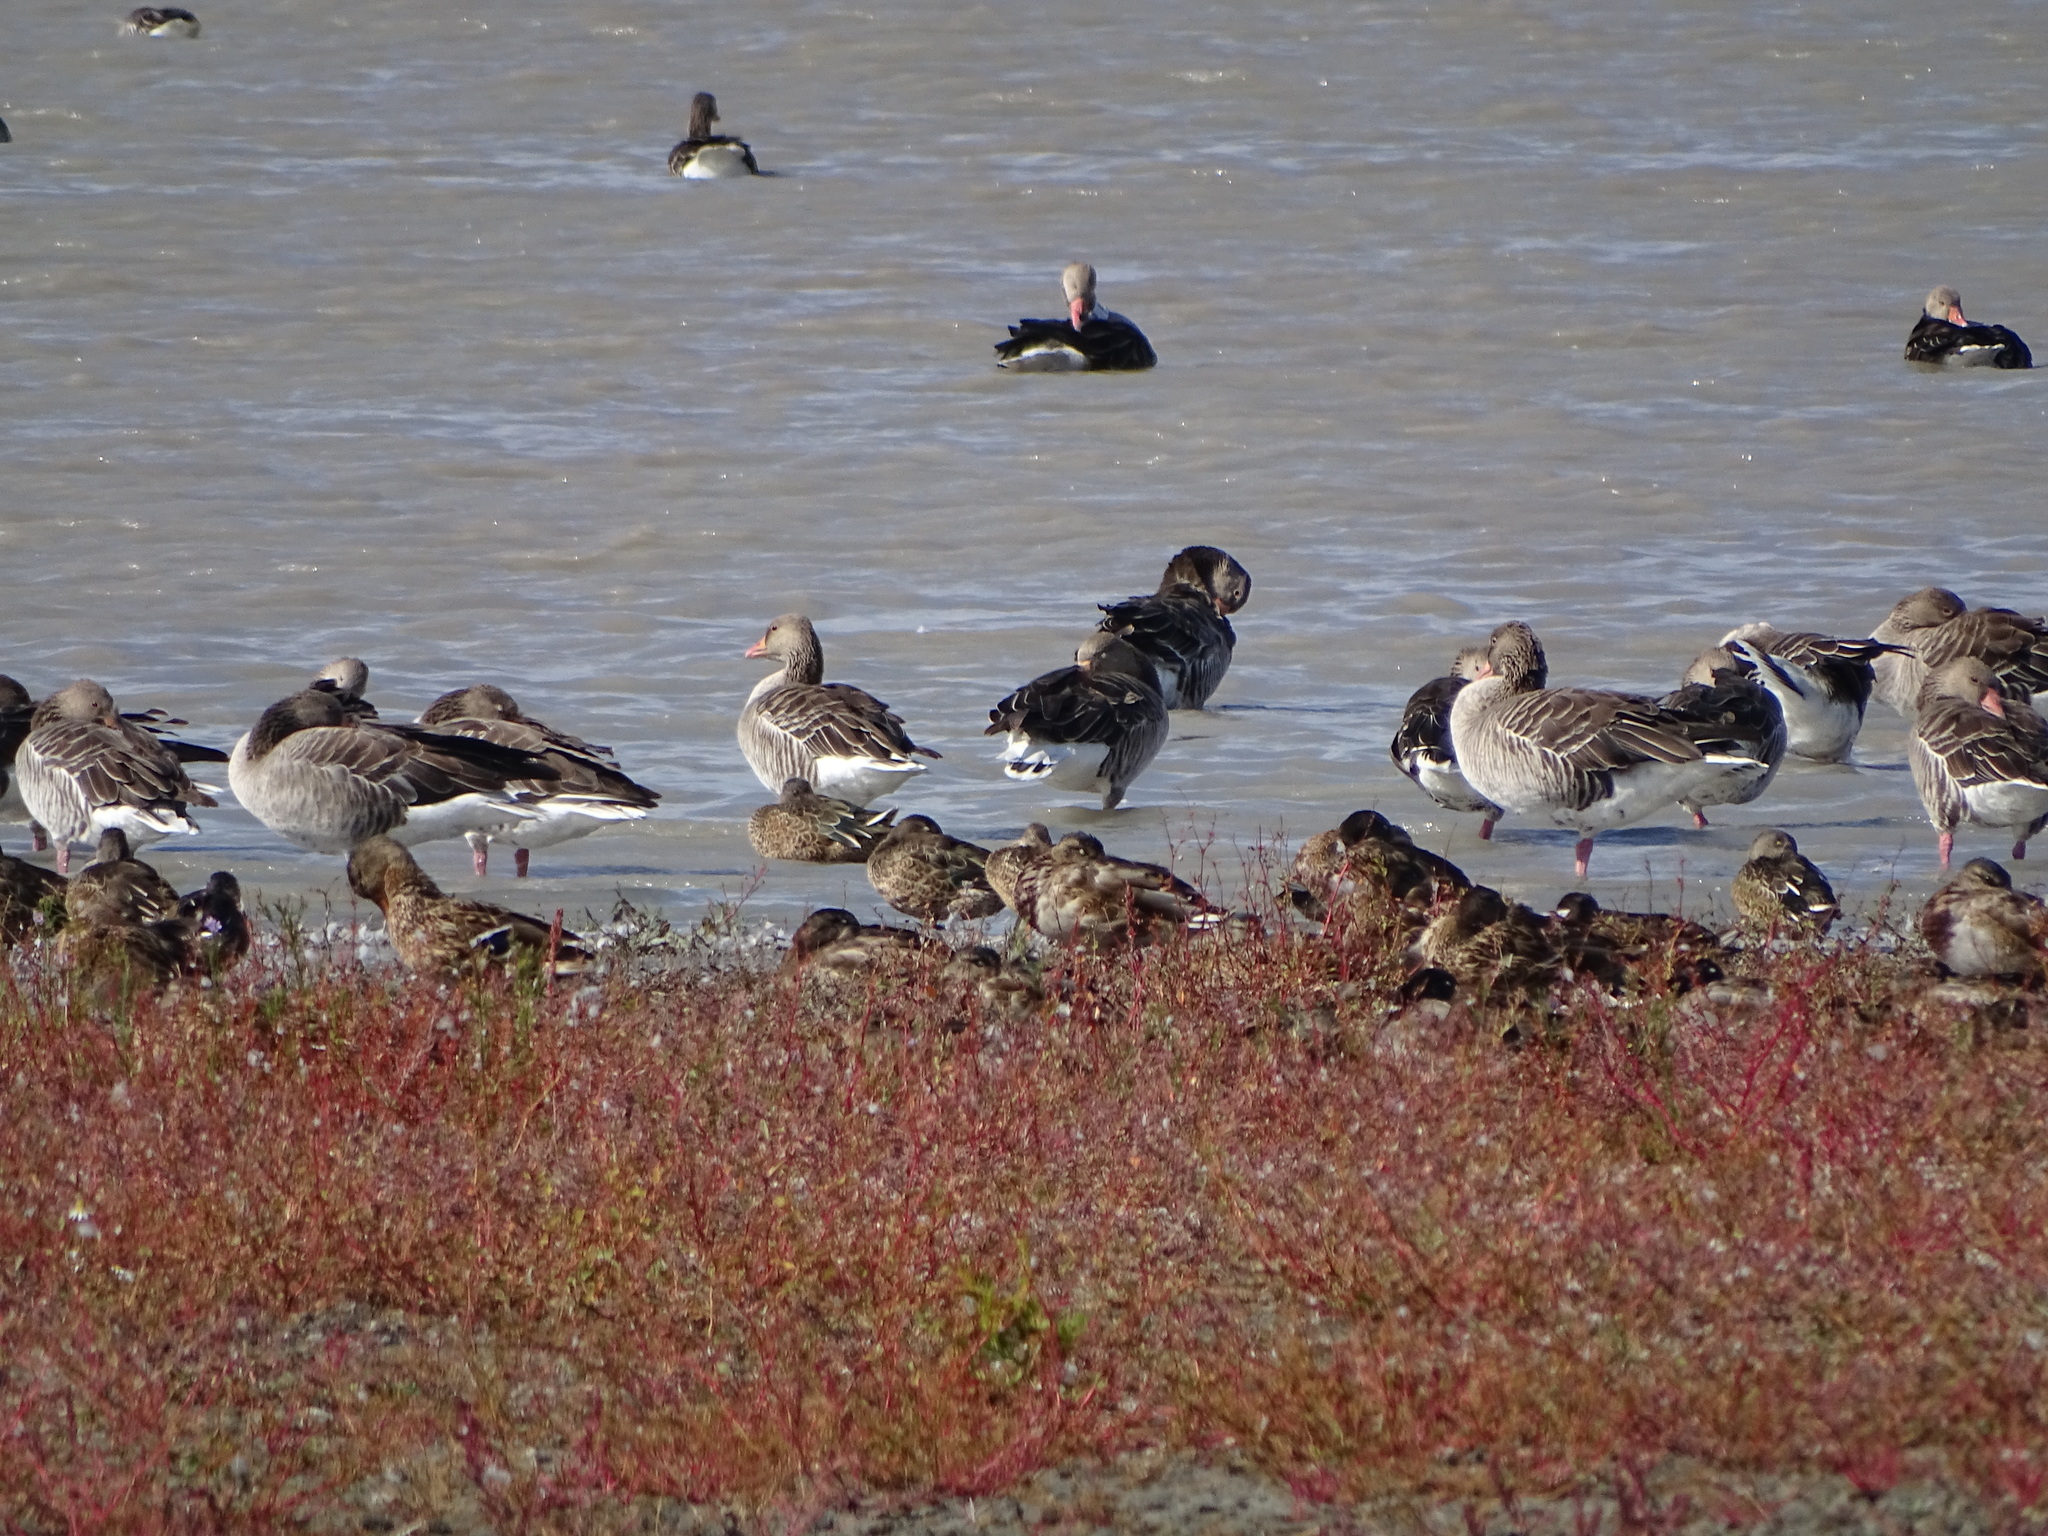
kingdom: Animalia
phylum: Chordata
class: Aves
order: Anseriformes
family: Anatidae
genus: Spatula
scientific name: Spatula clypeata
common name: Northern shoveler
